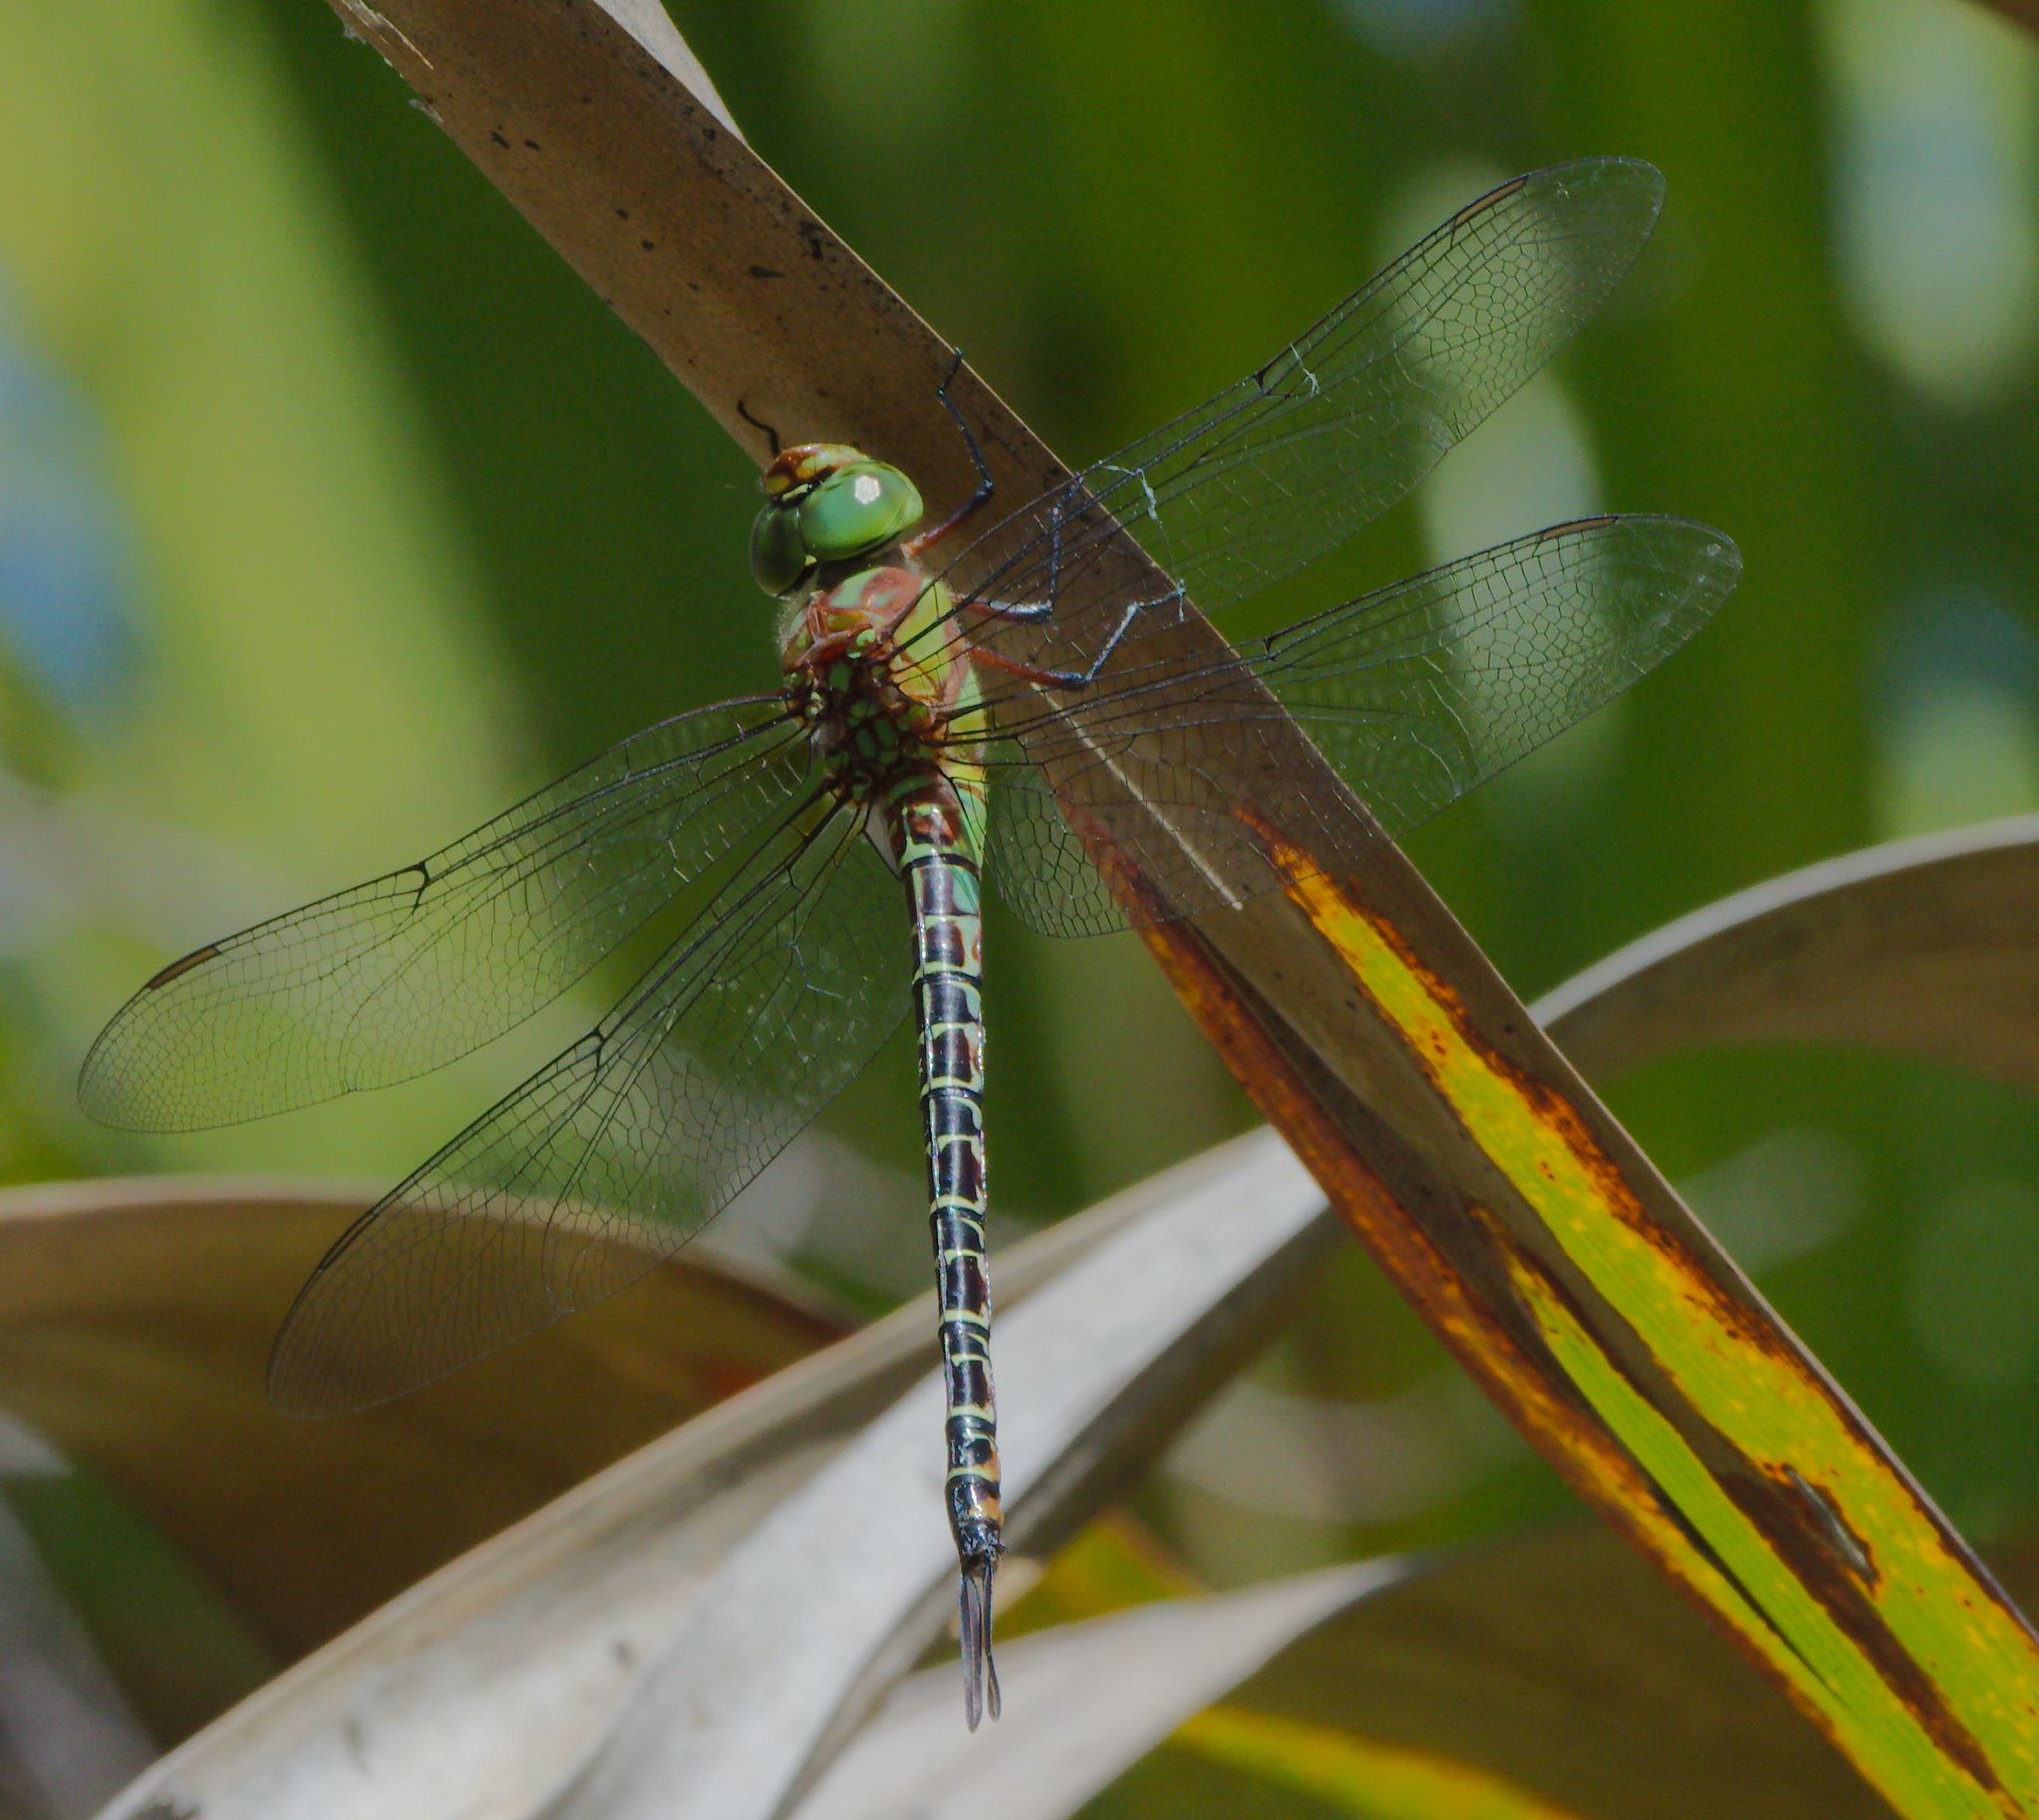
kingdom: Animalia
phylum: Arthropoda
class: Insecta
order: Odonata
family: Aeshnidae
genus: Coryphaeschna
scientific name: Coryphaeschna ingens
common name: Regal darner
